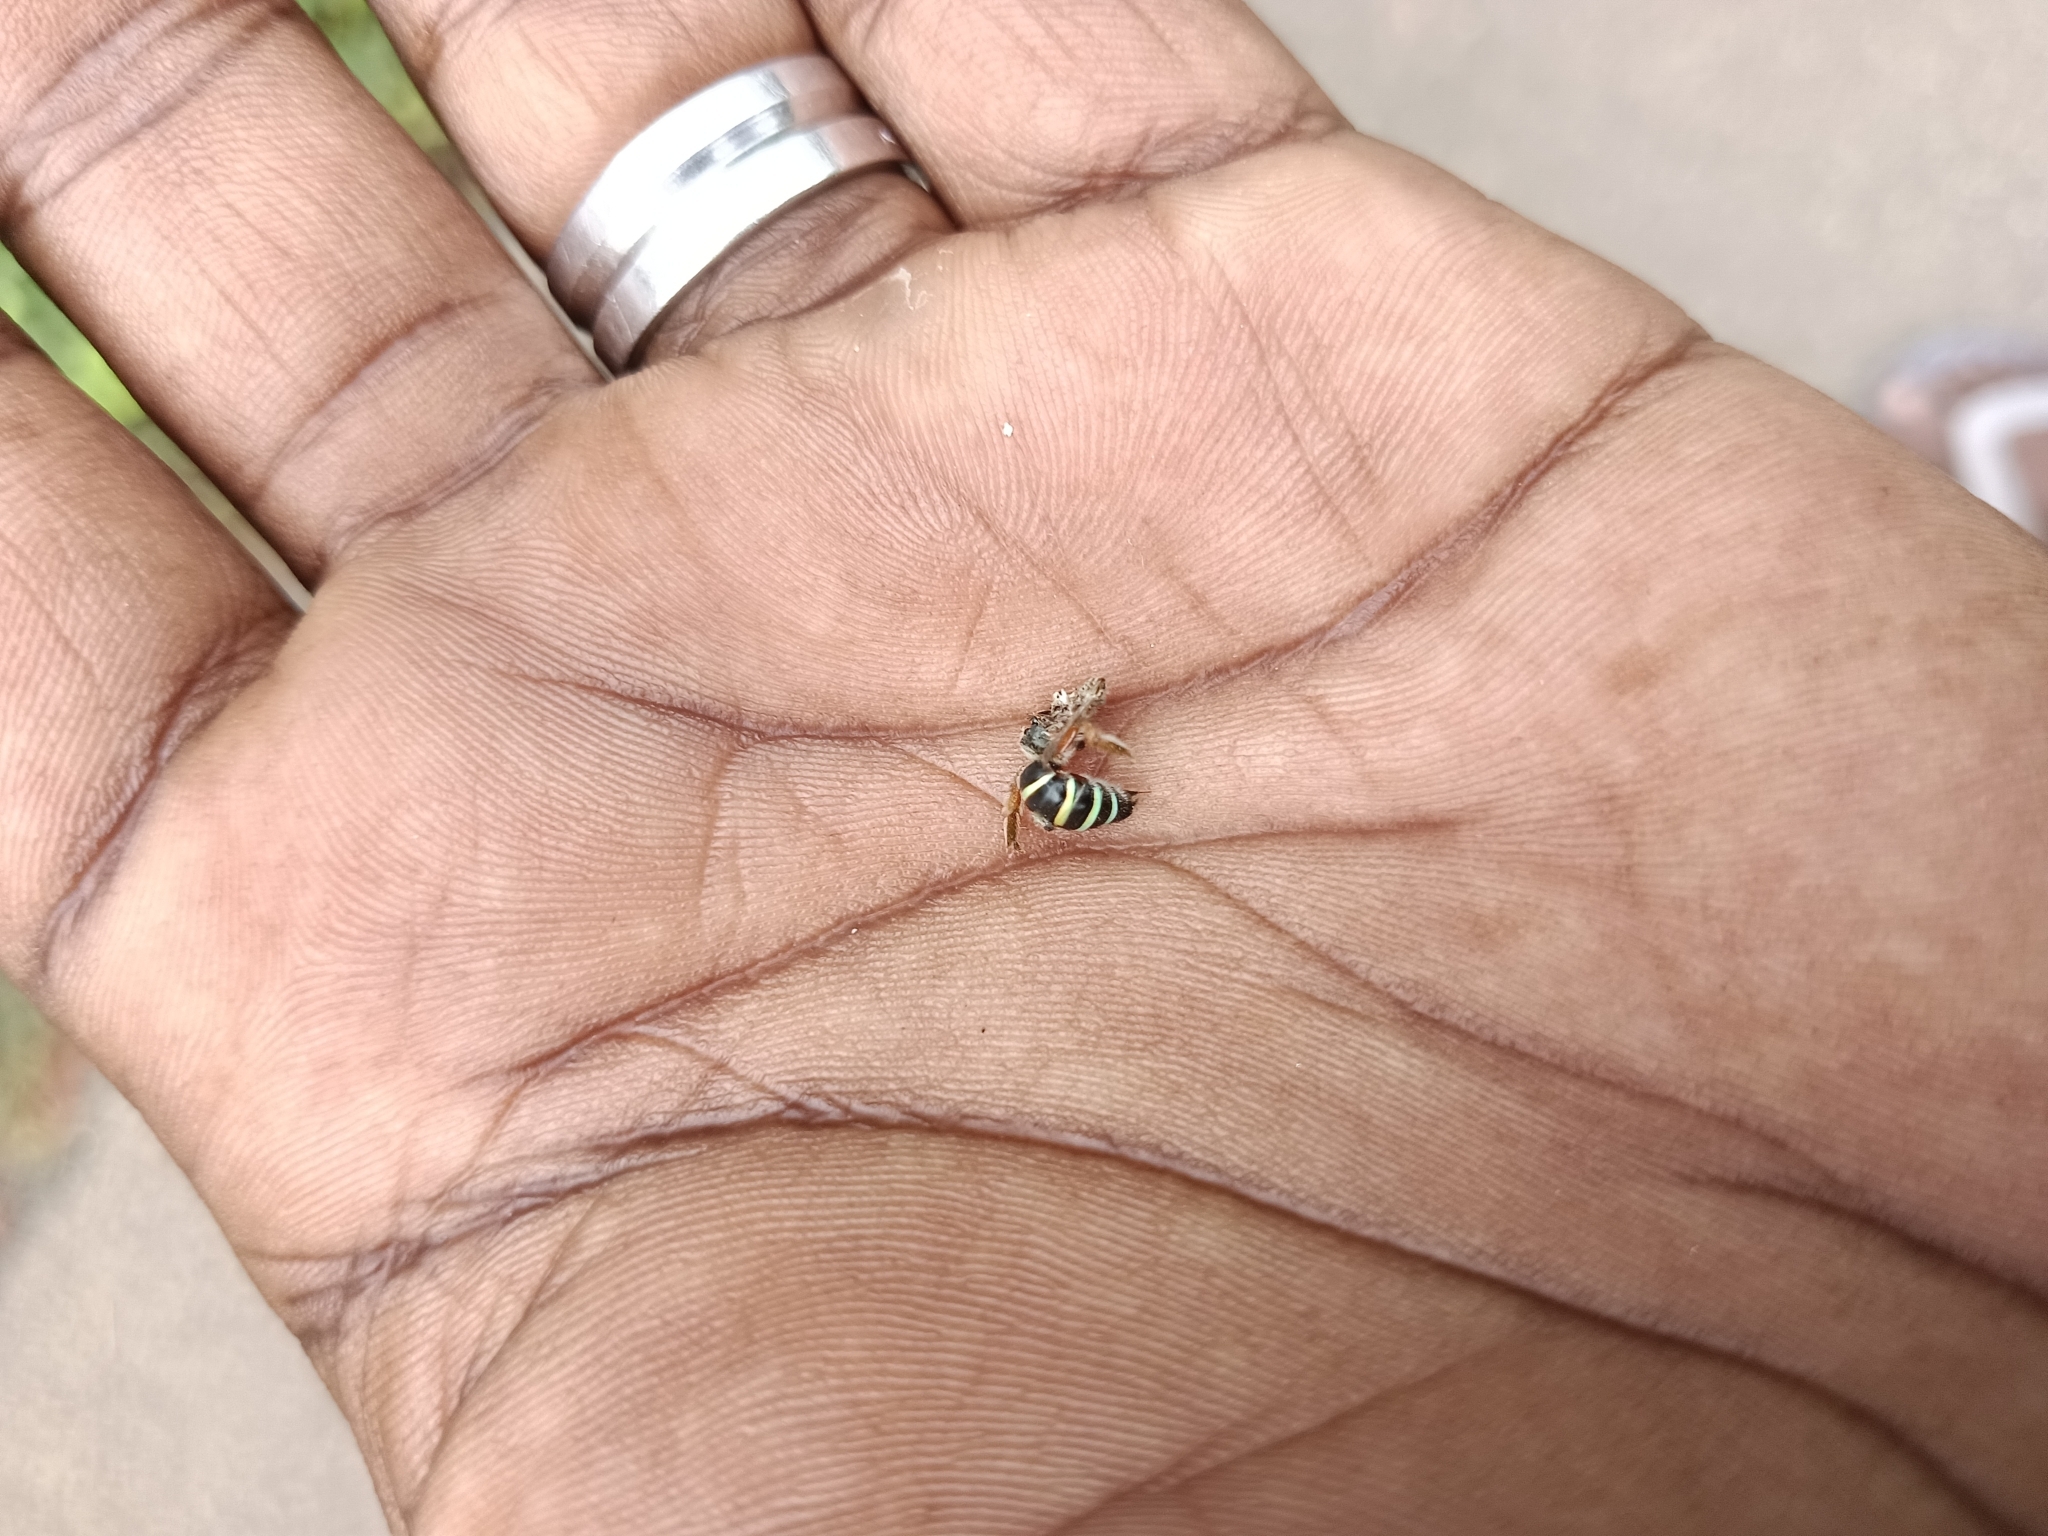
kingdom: Animalia
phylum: Arthropoda
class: Insecta
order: Hymenoptera
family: Halictidae
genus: Nomia
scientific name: Nomia westwoodi
